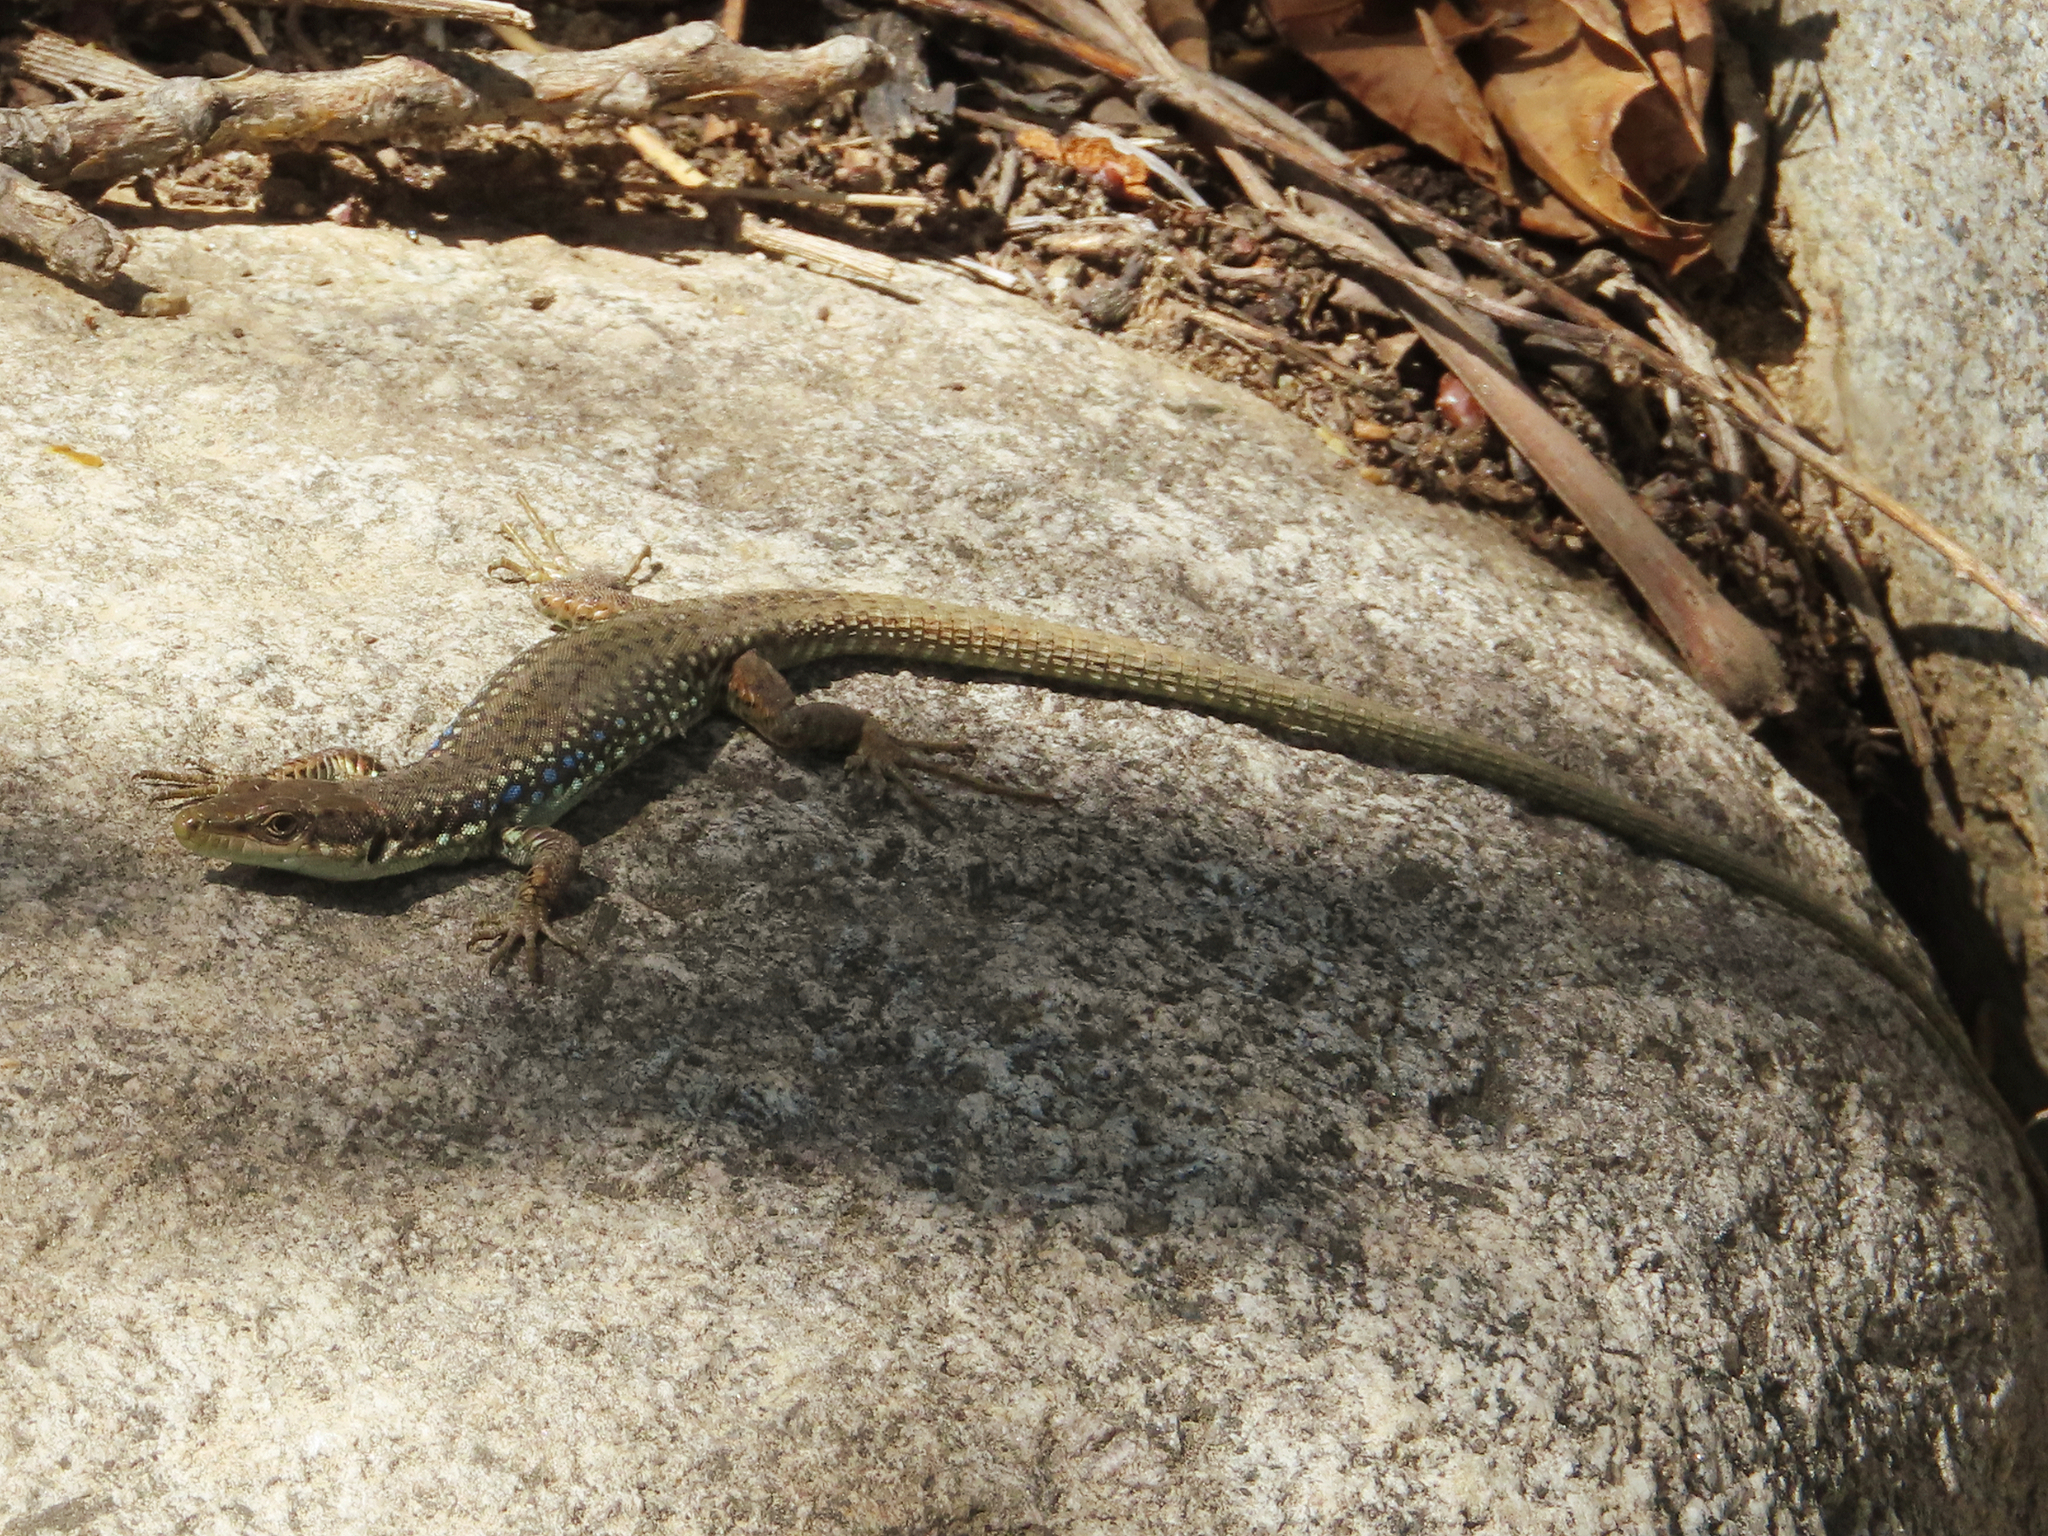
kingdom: Animalia
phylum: Chordata
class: Squamata
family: Lacertidae
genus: Darevskia
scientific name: Darevskia raddei
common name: Radde's lizard
